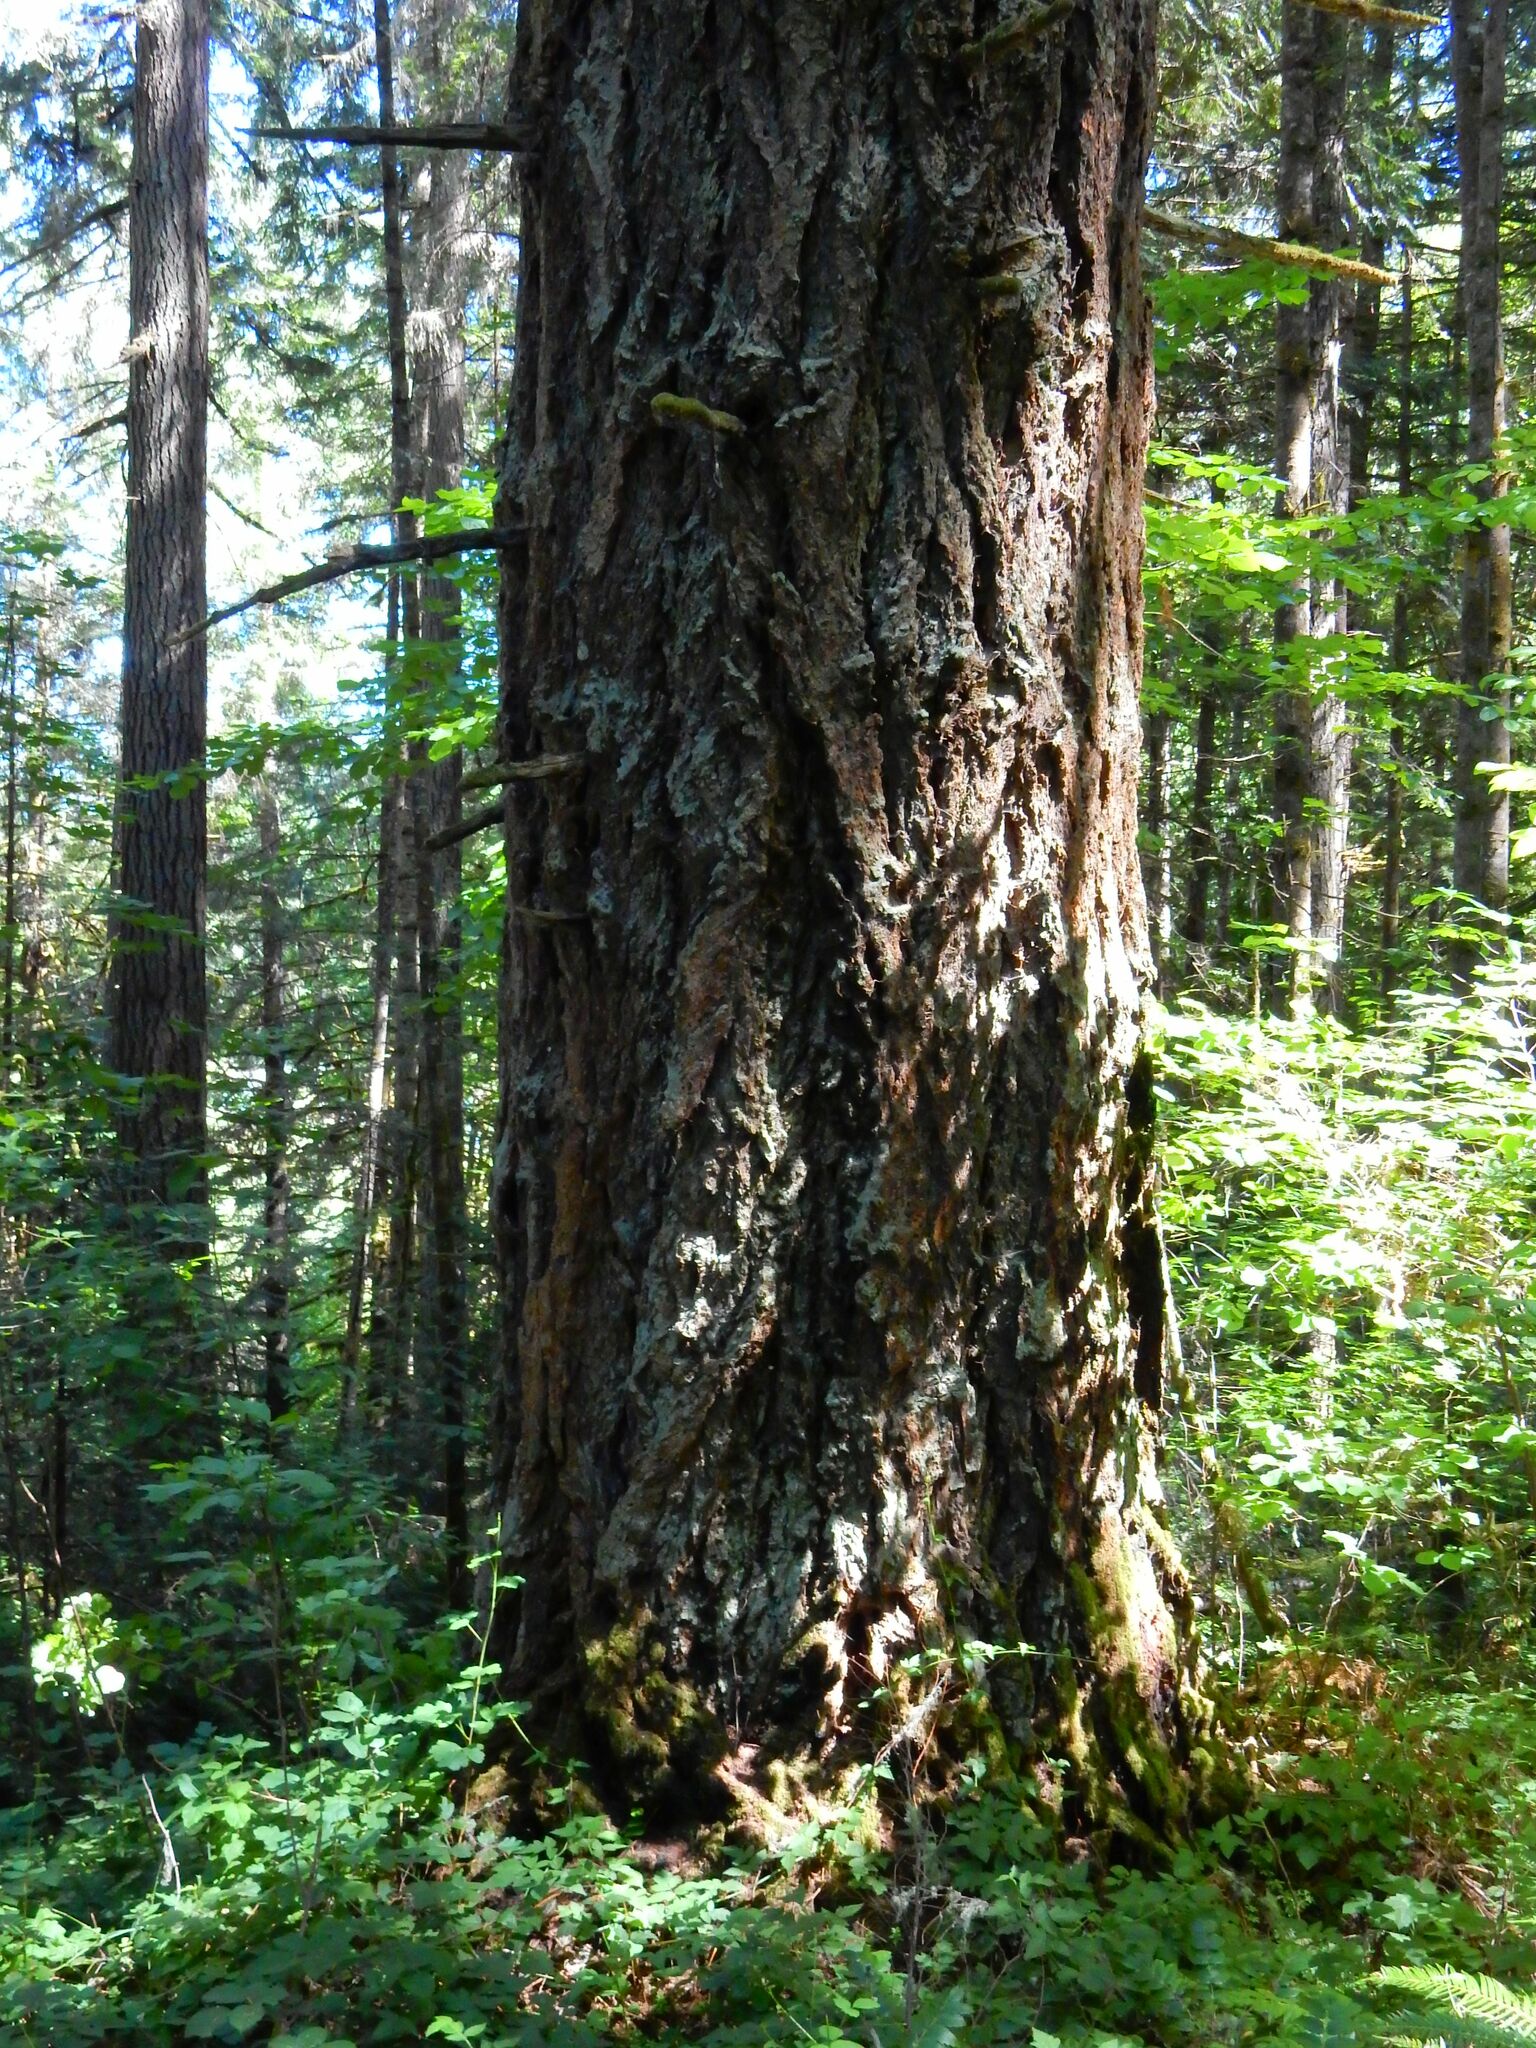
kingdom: Plantae
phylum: Tracheophyta
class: Pinopsida
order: Pinales
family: Pinaceae
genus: Pseudotsuga
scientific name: Pseudotsuga menziesii
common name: Douglas fir
